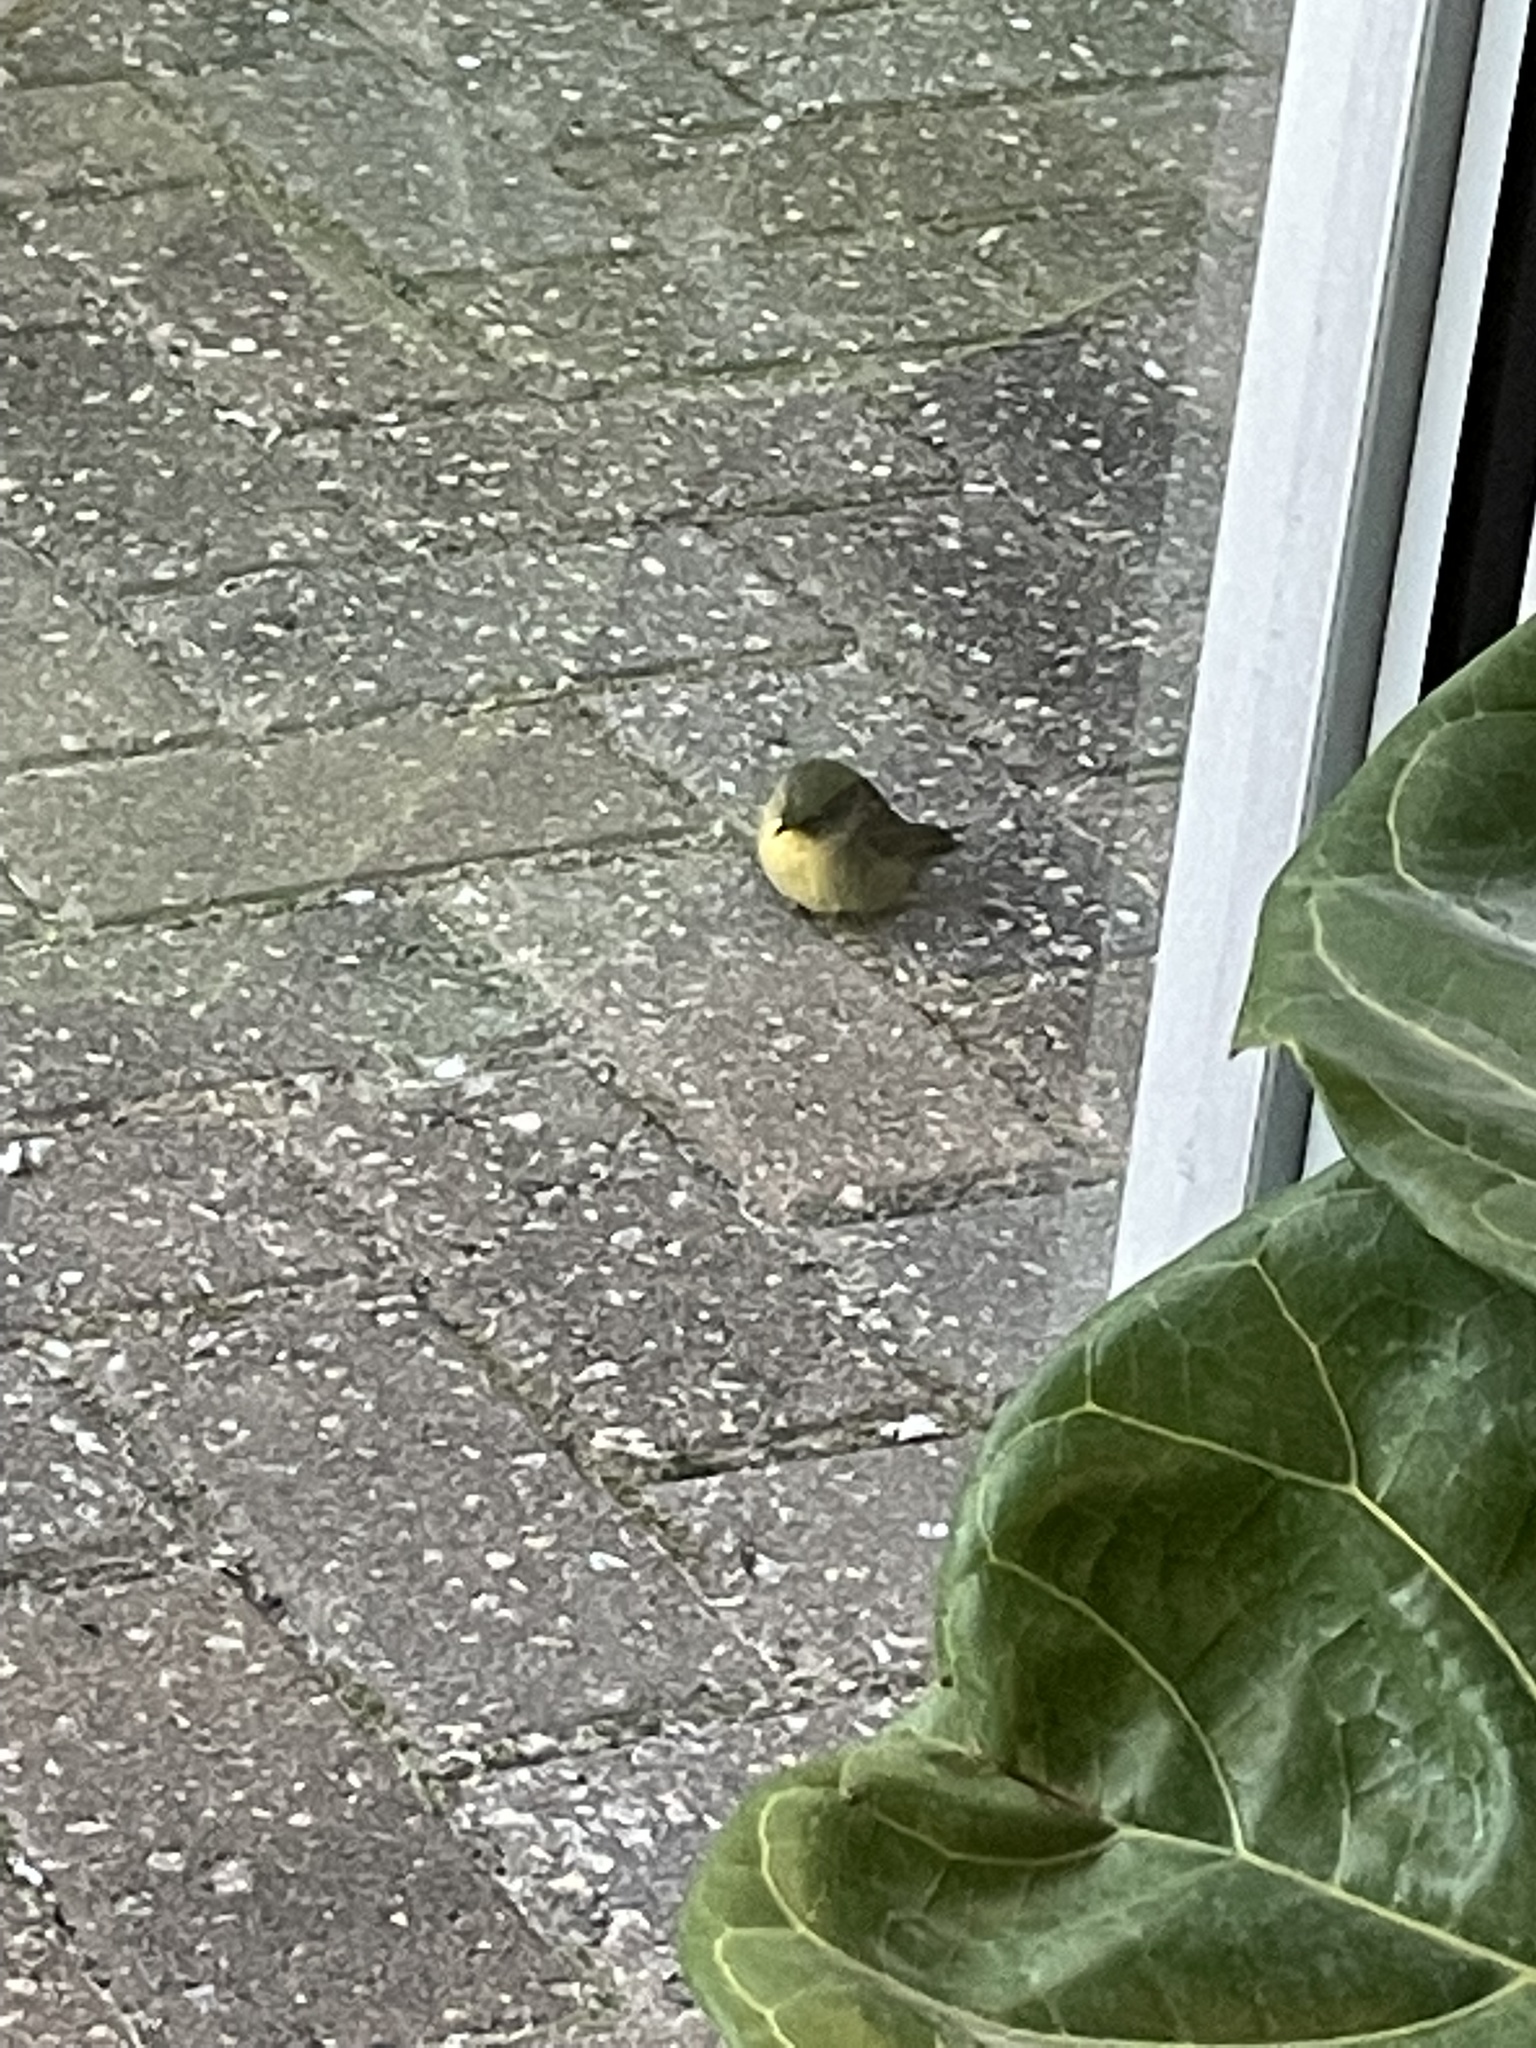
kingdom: Animalia
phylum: Chordata
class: Aves
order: Passeriformes
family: Parulidae
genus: Geothlypis
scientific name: Geothlypis trichas
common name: Common yellowthroat
